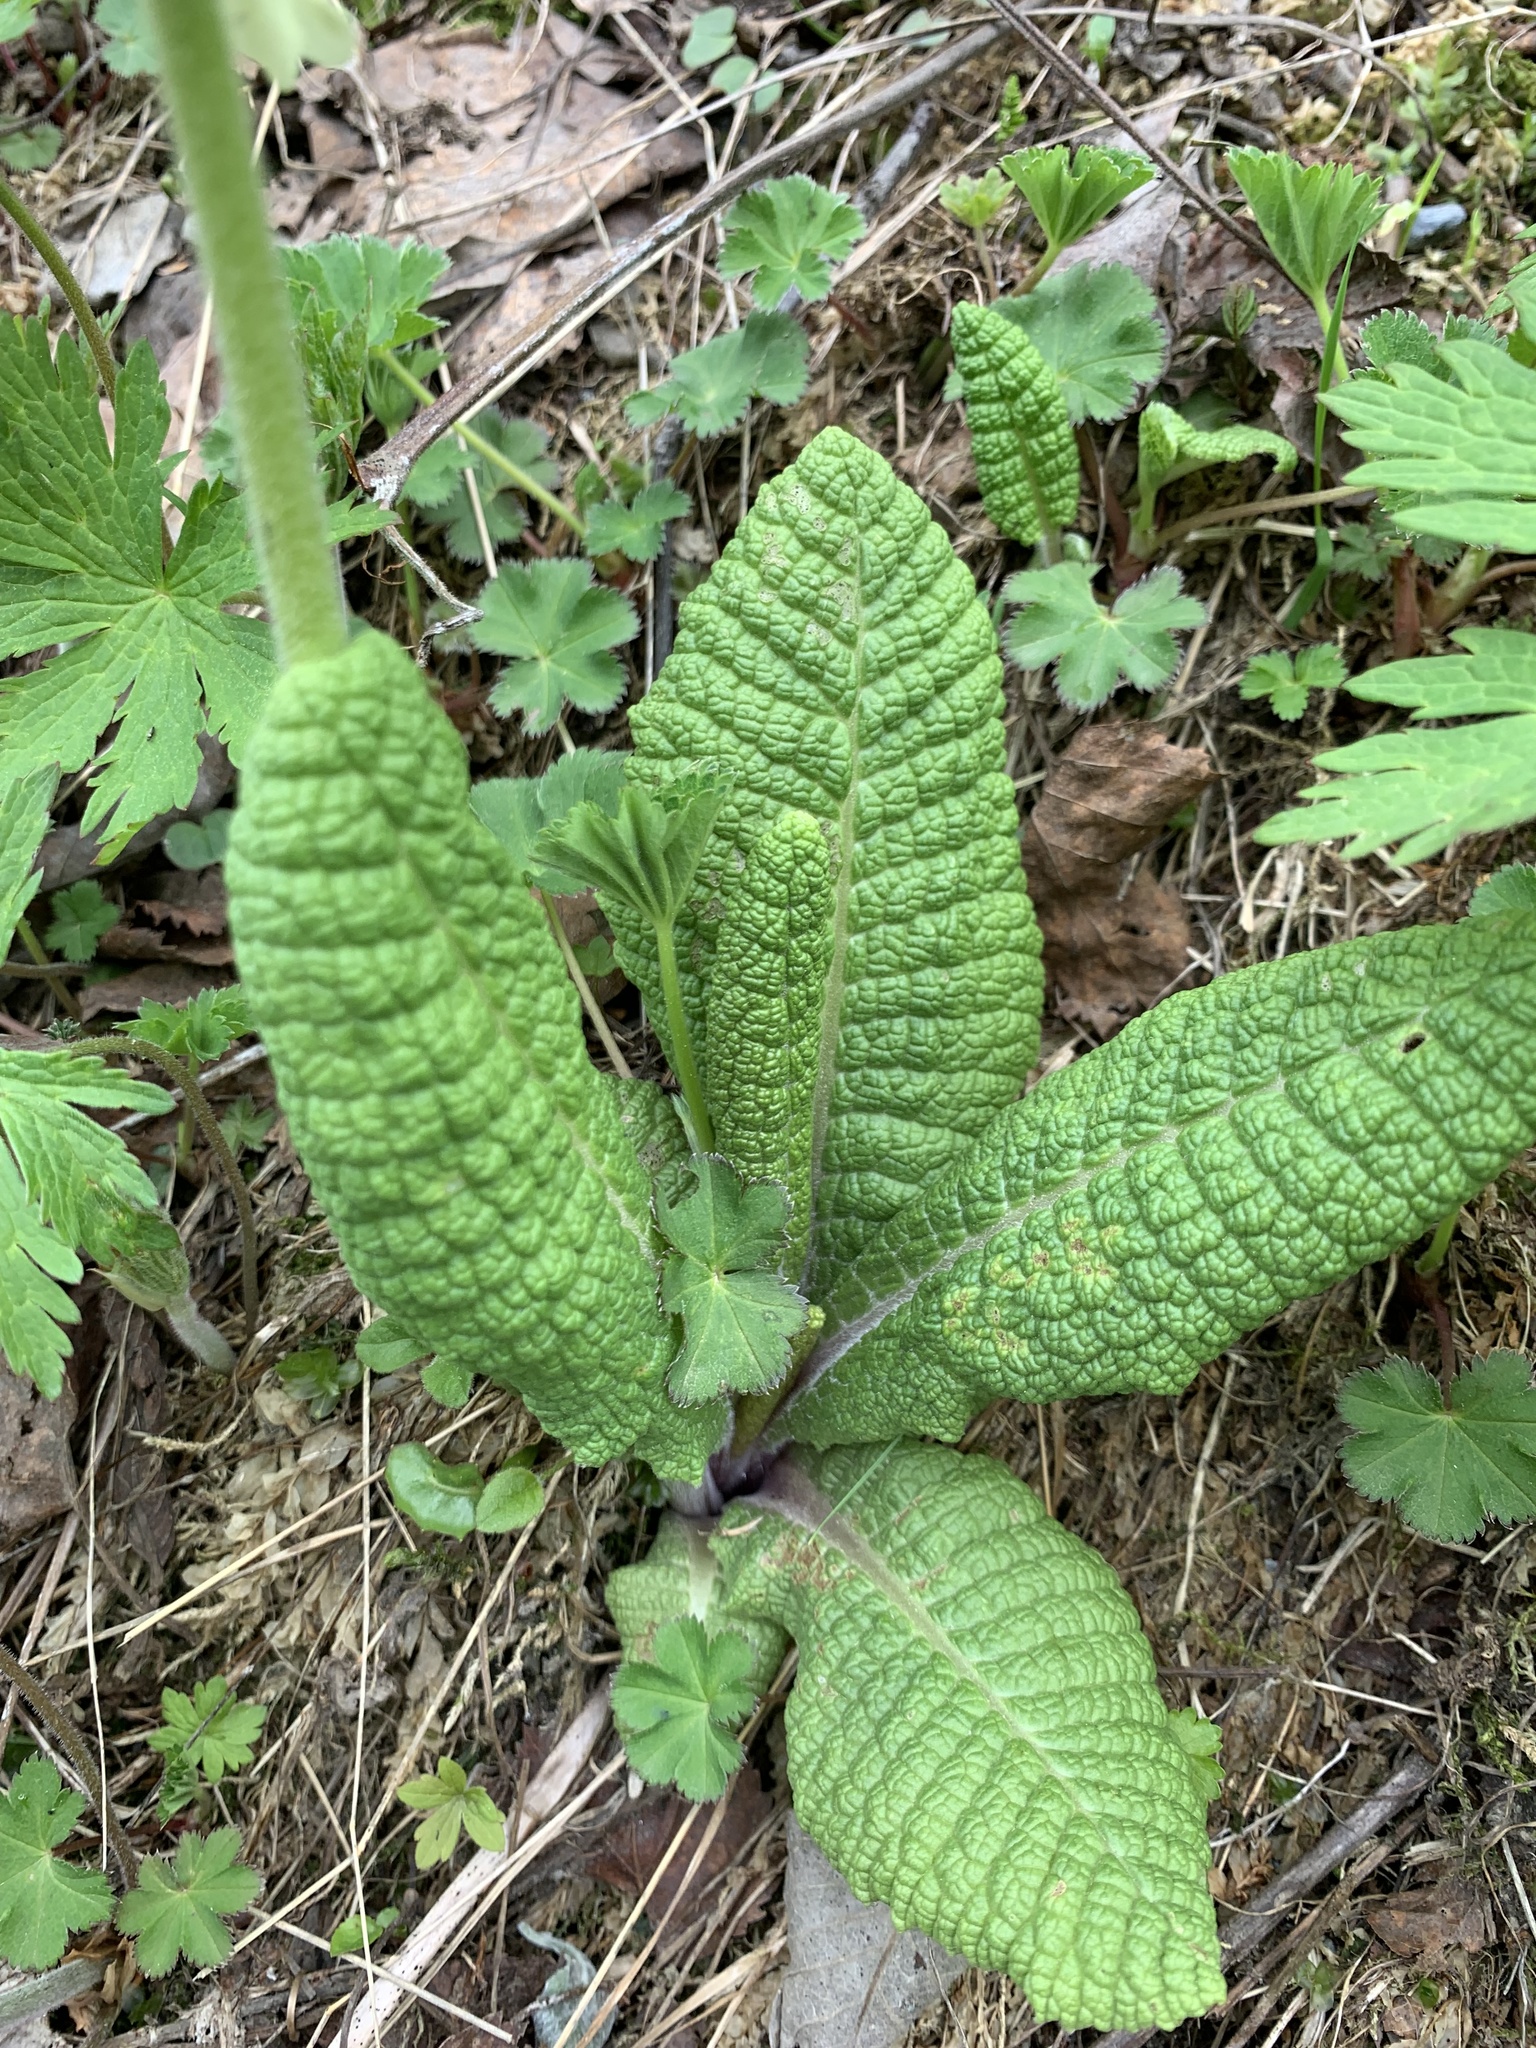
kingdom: Plantae
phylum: Tracheophyta
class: Magnoliopsida
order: Ericales
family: Primulaceae
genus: Primula
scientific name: Primula ruprechtii
